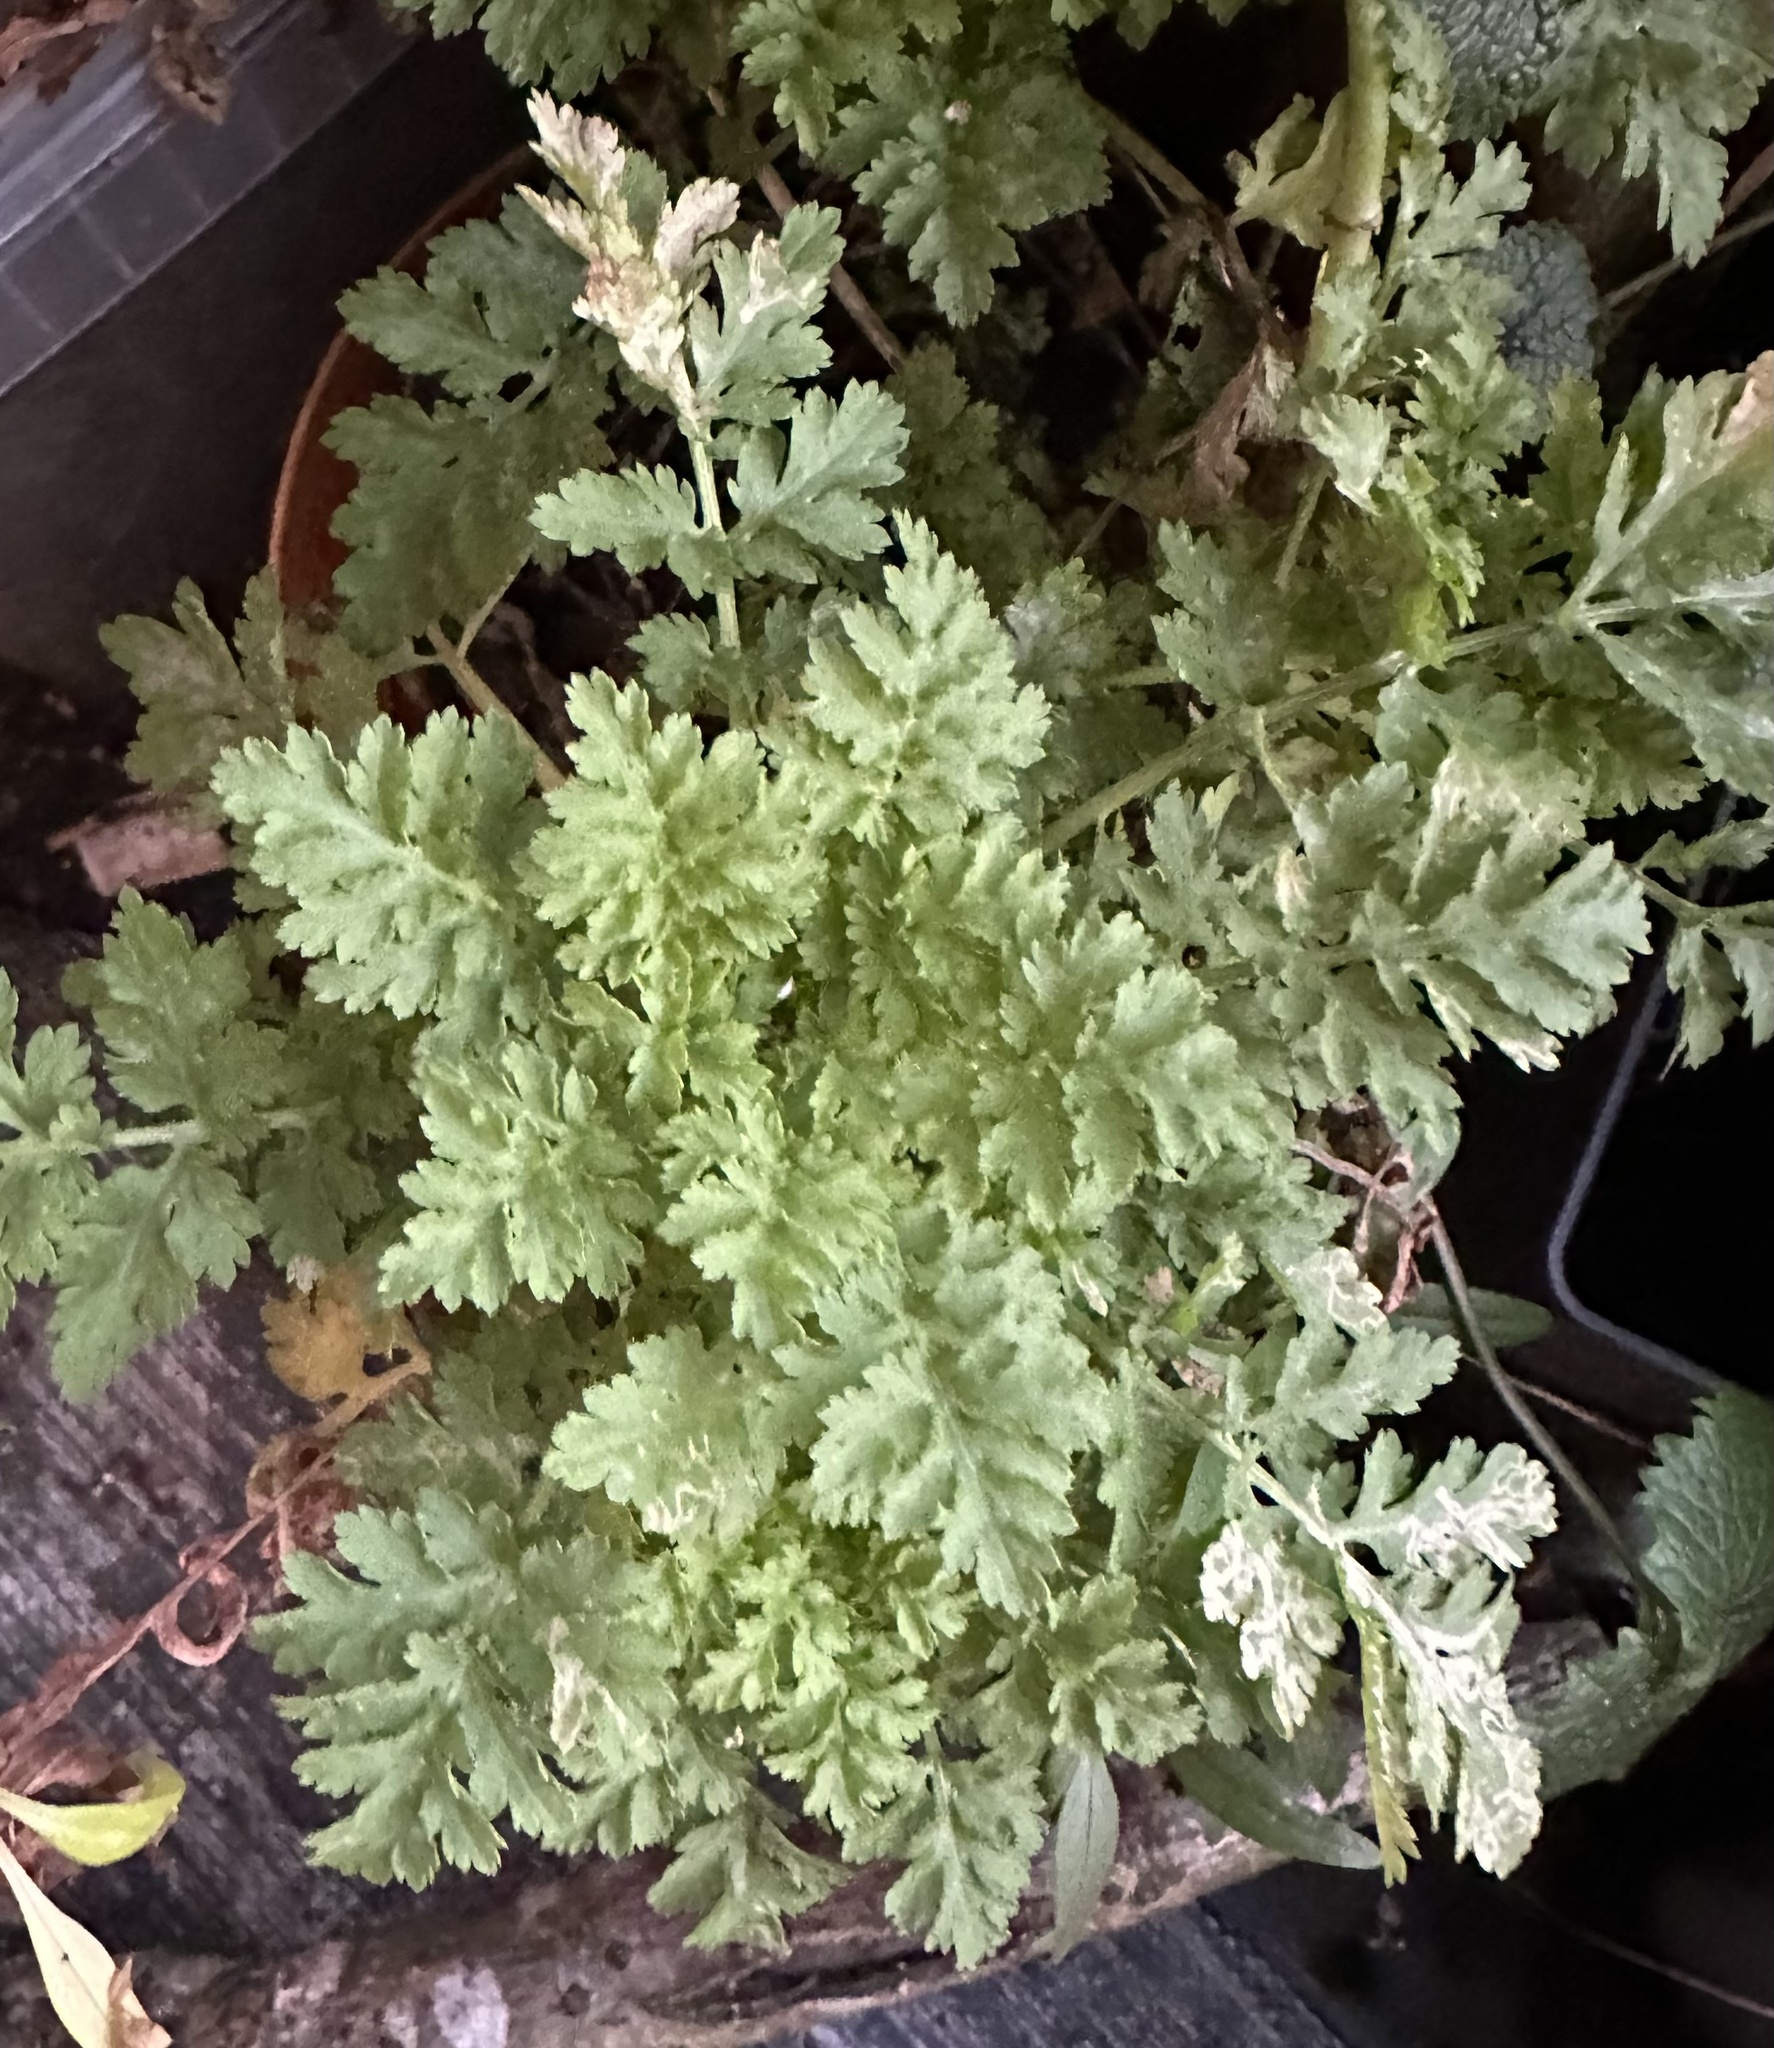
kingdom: Plantae
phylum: Tracheophyta
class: Magnoliopsida
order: Asterales
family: Asteraceae
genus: Tanacetum
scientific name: Tanacetum parthenium
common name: Feverfew
